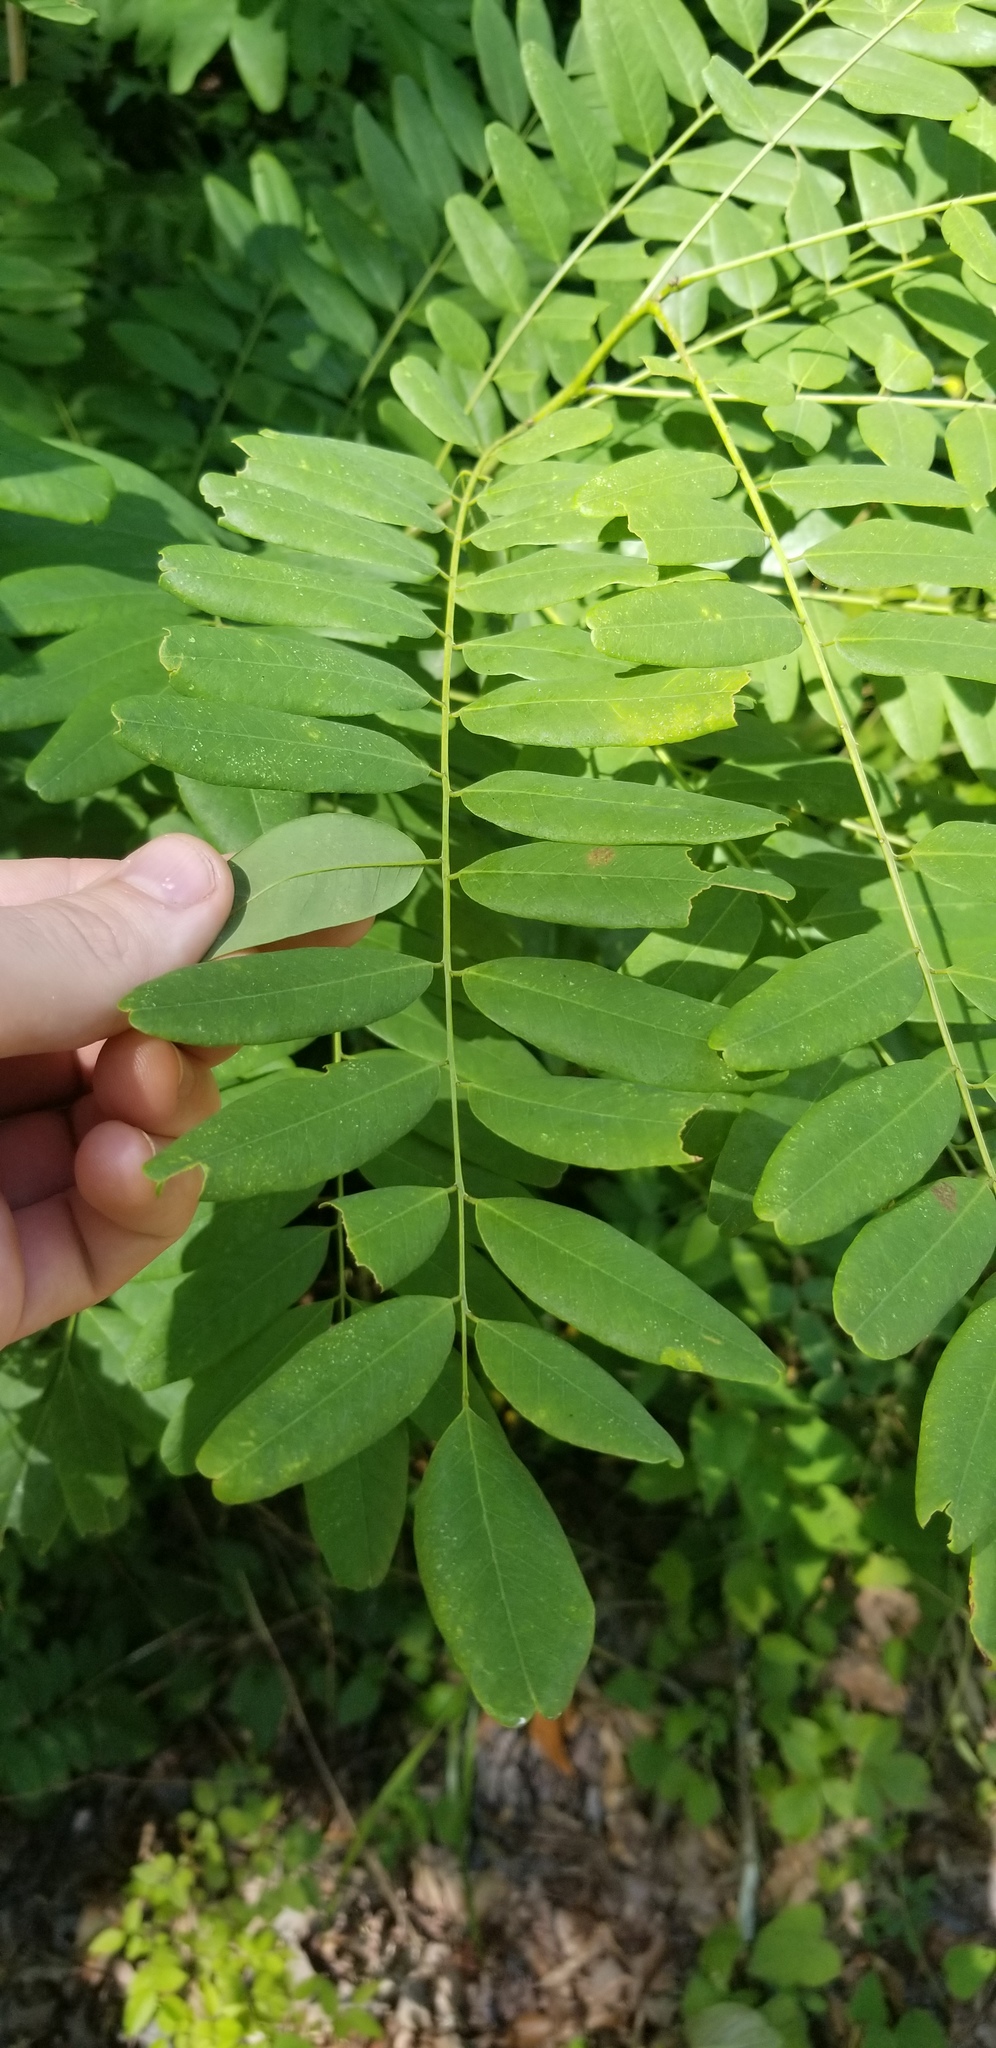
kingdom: Plantae
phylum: Tracheophyta
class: Magnoliopsida
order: Fabales
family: Fabaceae
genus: Amorpha
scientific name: Amorpha fruticosa
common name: False indigo
